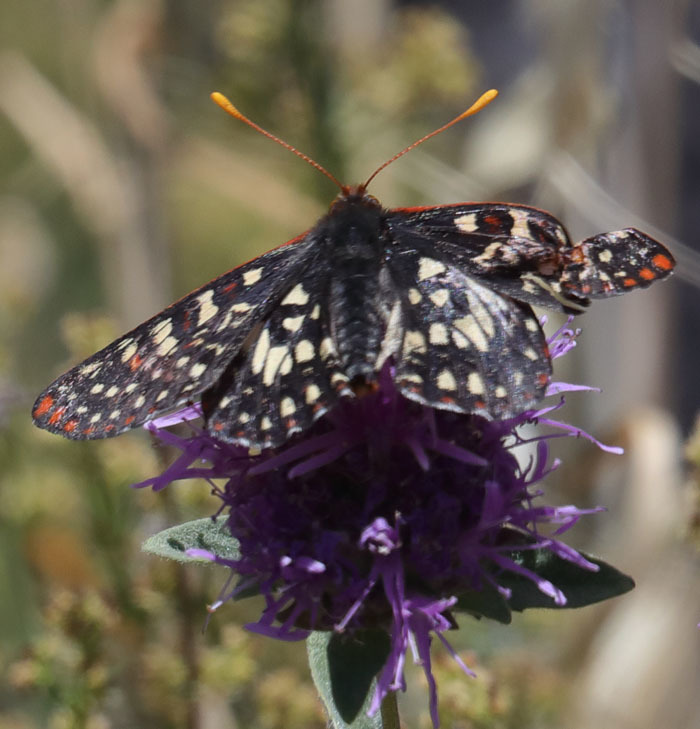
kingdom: Animalia
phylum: Arthropoda
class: Insecta
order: Lepidoptera
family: Nymphalidae
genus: Occidryas
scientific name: Occidryas chalcedona
